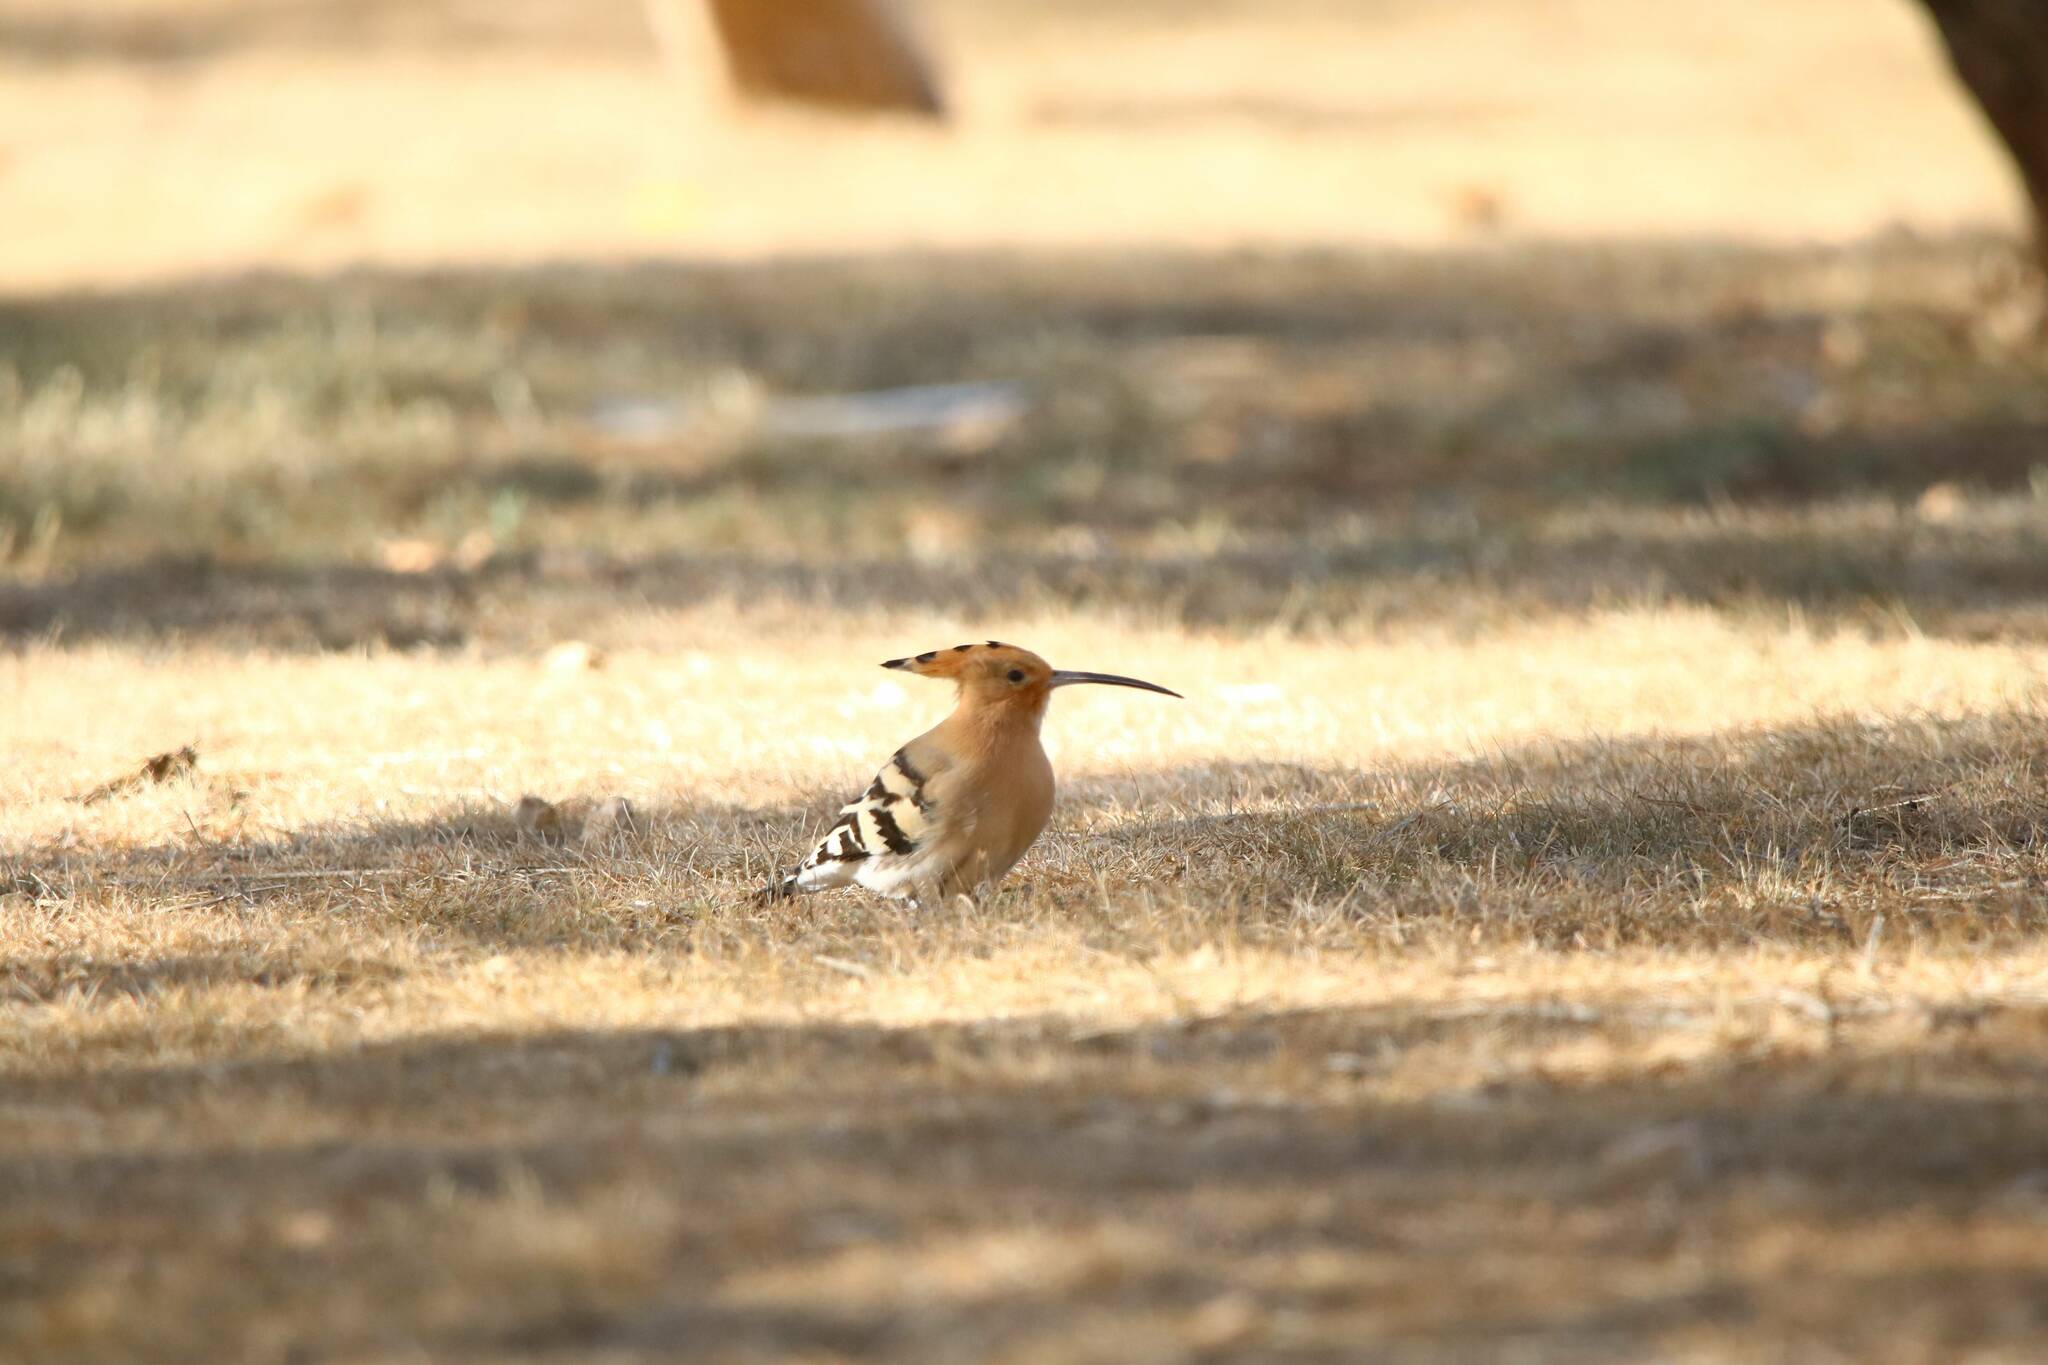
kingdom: Animalia
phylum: Chordata
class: Aves
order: Bucerotiformes
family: Upupidae
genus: Upupa
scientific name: Upupa epops
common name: Eurasian hoopoe
